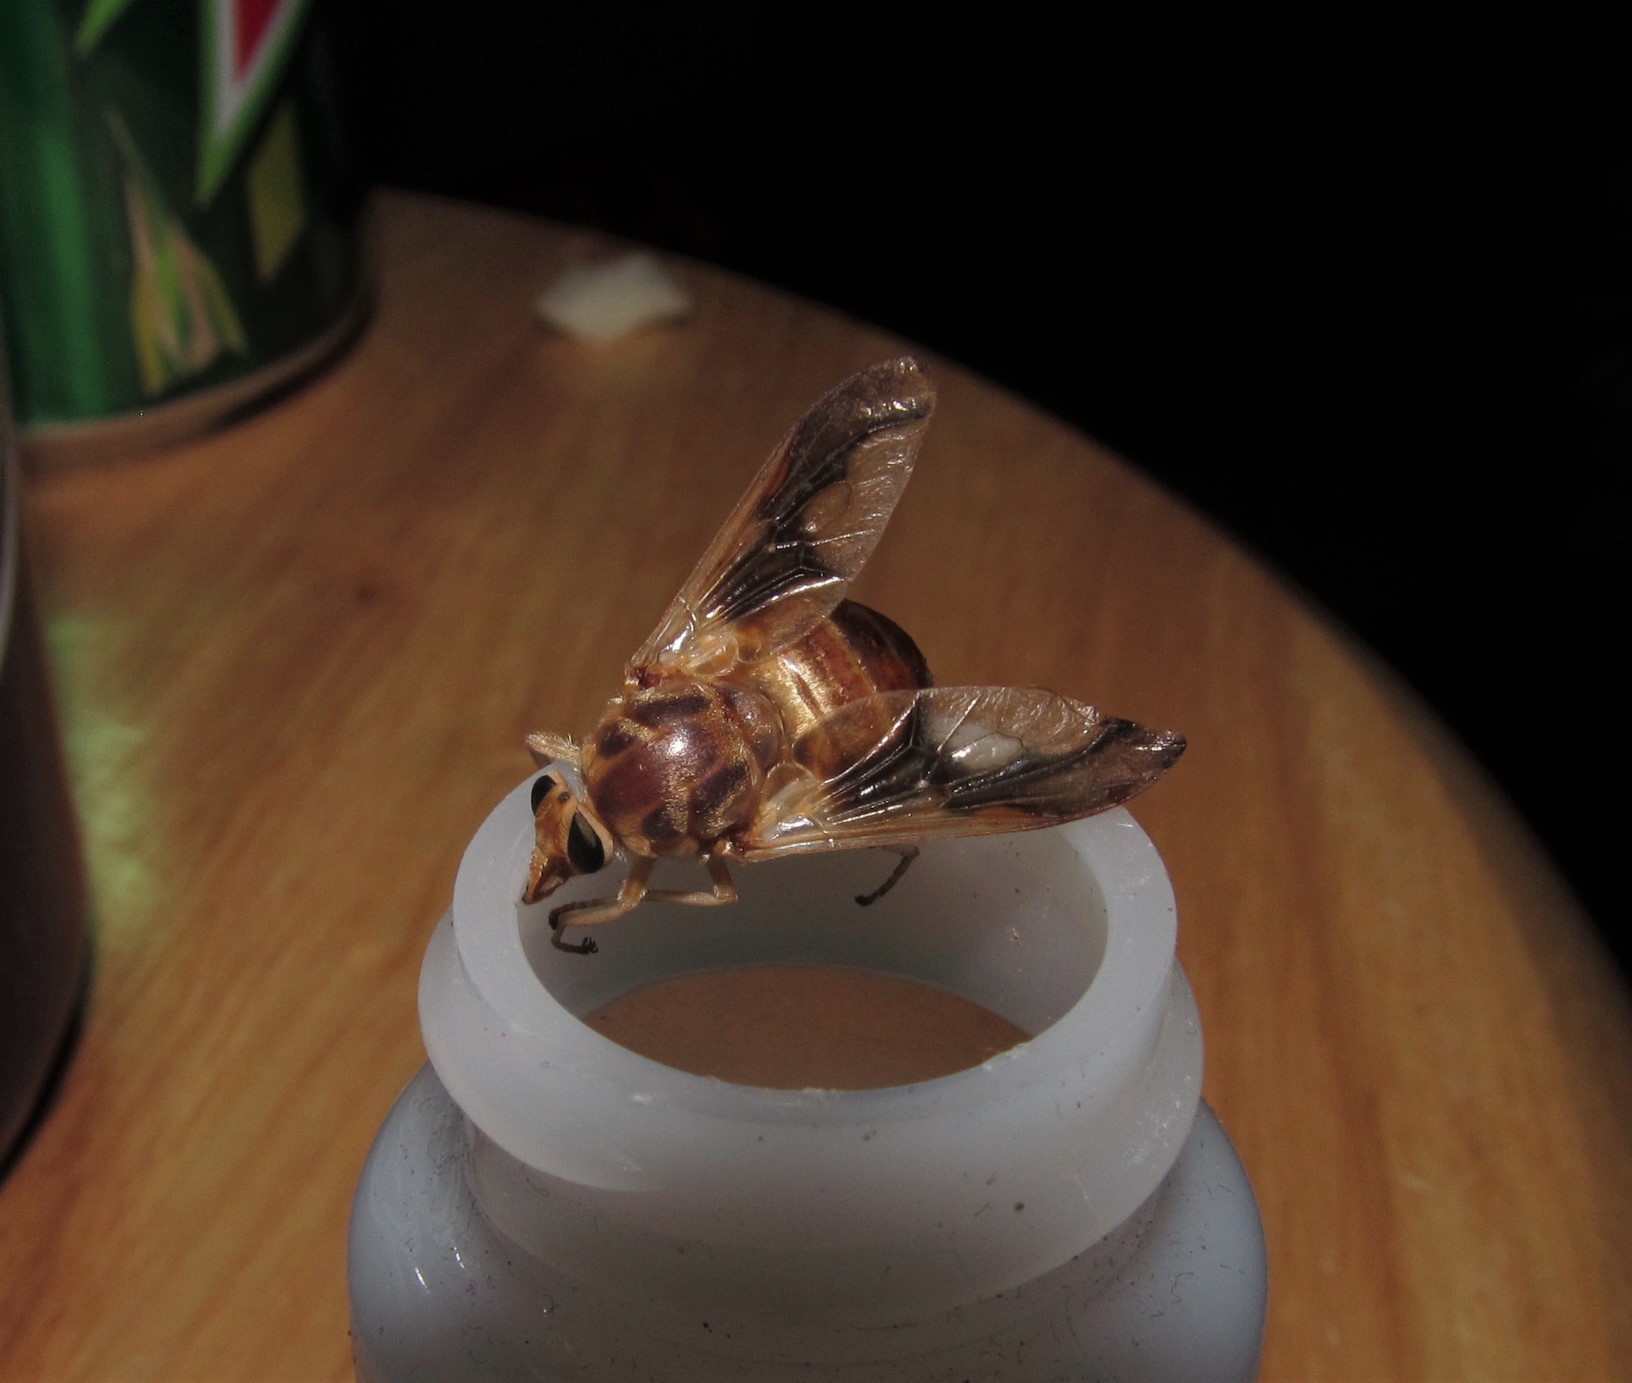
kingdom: Animalia
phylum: Arthropoda
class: Insecta
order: Diptera
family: Tabanidae
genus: Goniops
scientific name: Goniops chrysocoma
